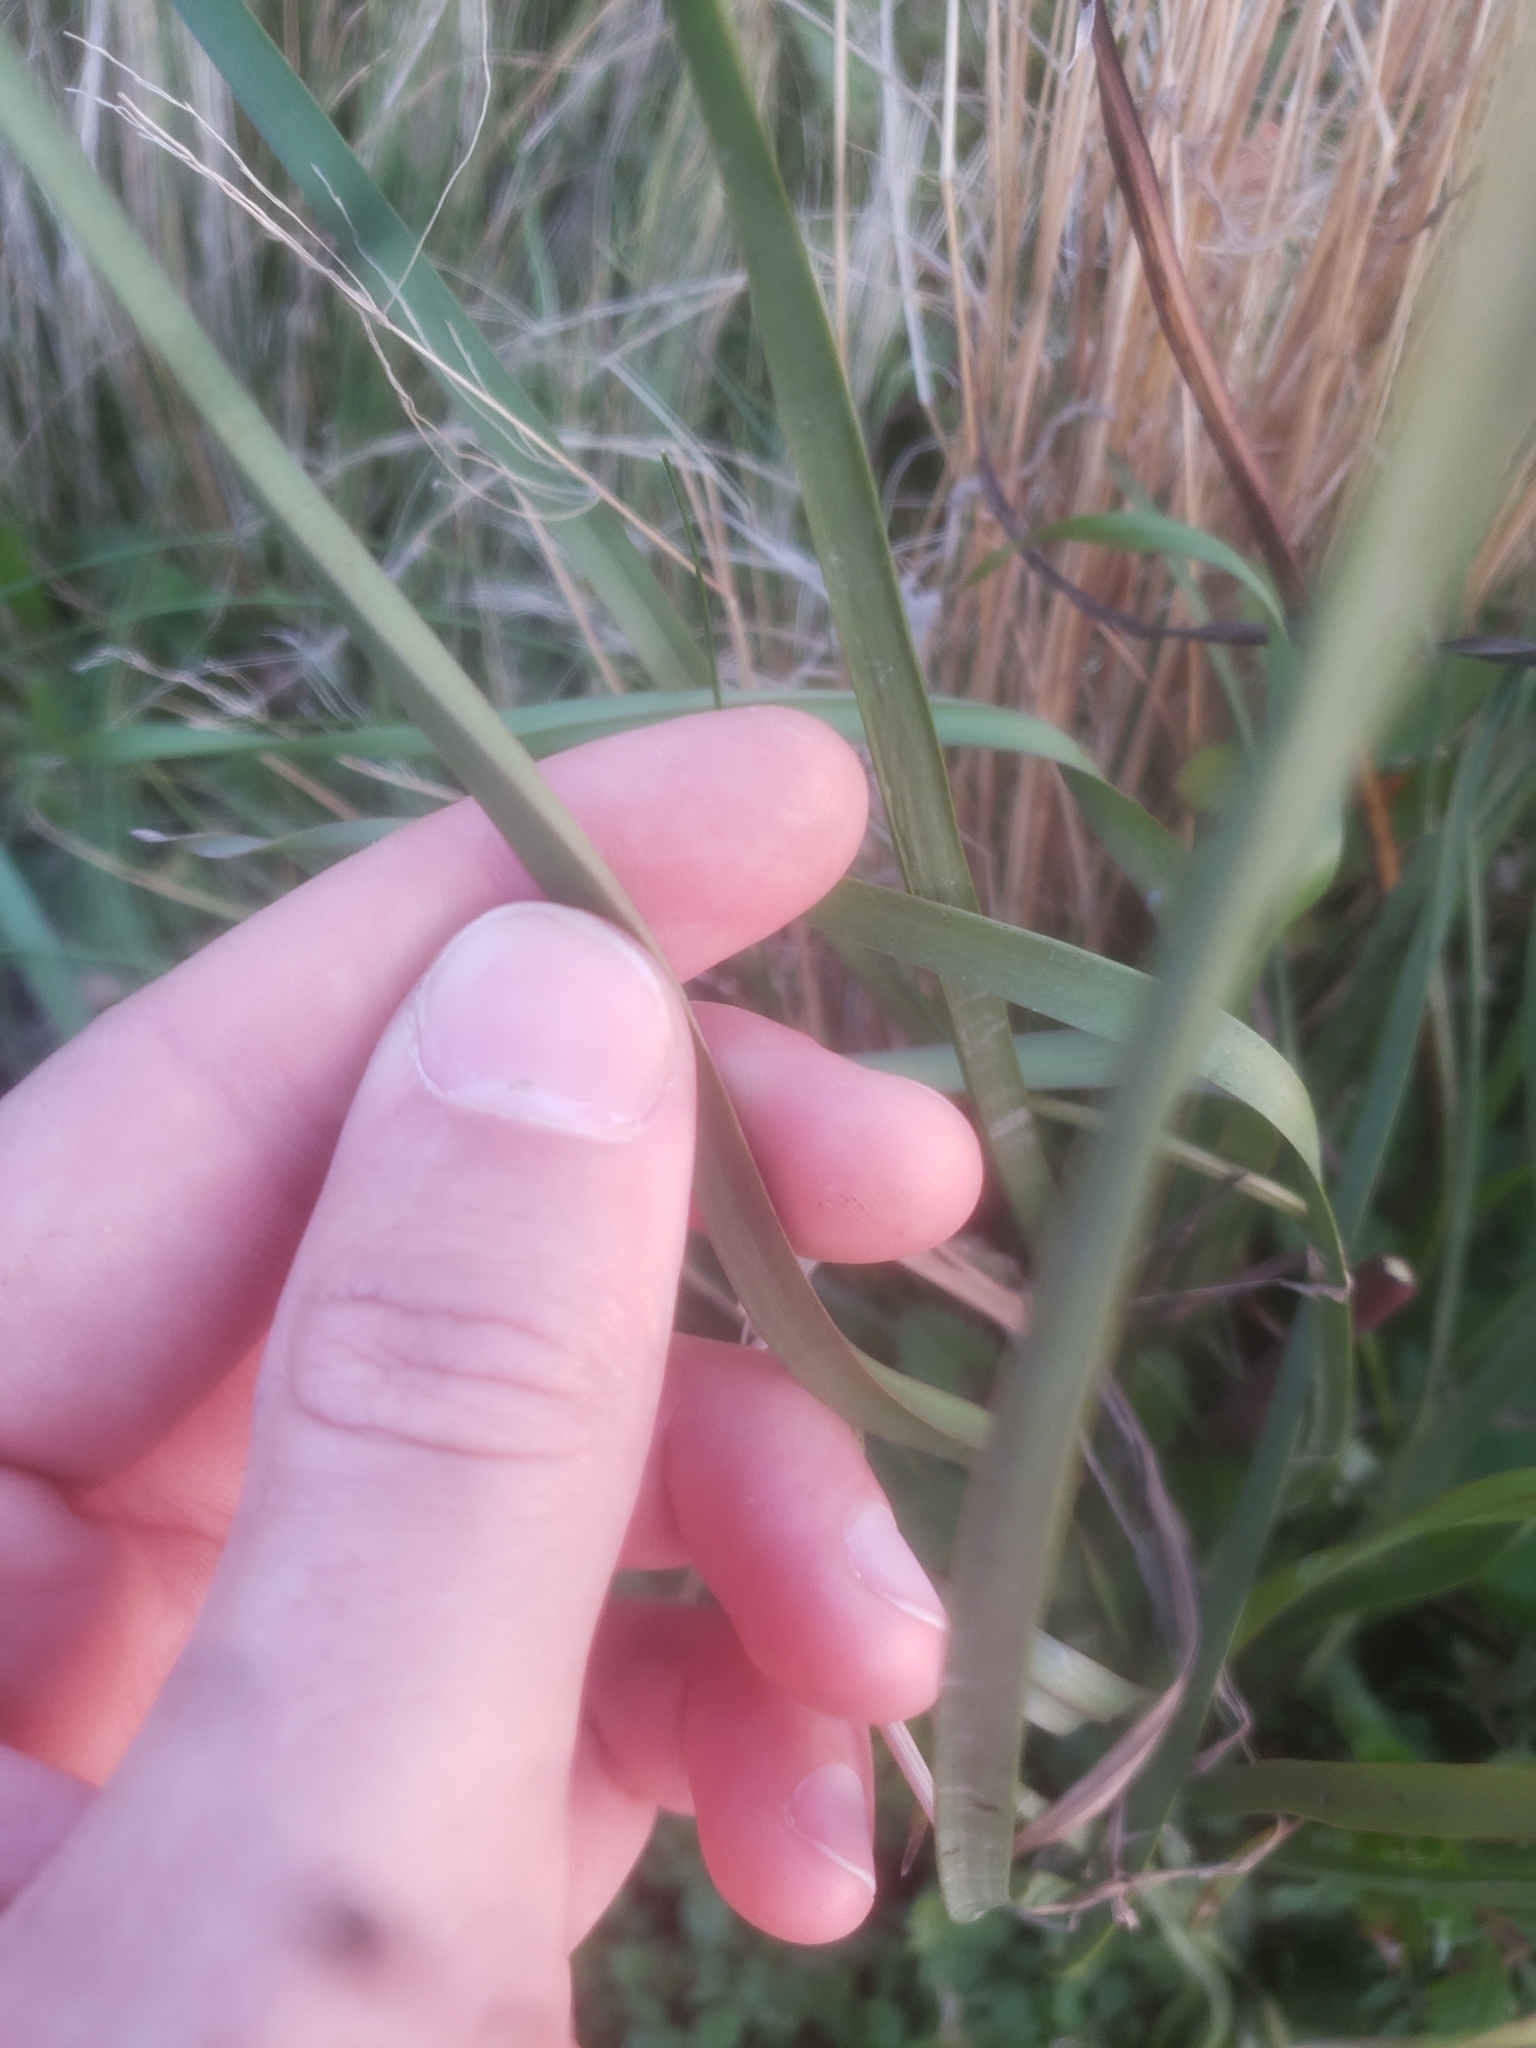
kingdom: Plantae
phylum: Tracheophyta
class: Liliopsida
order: Alismatales
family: Butomaceae
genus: Butomus
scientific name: Butomus umbellatus
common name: Flowering-rush
